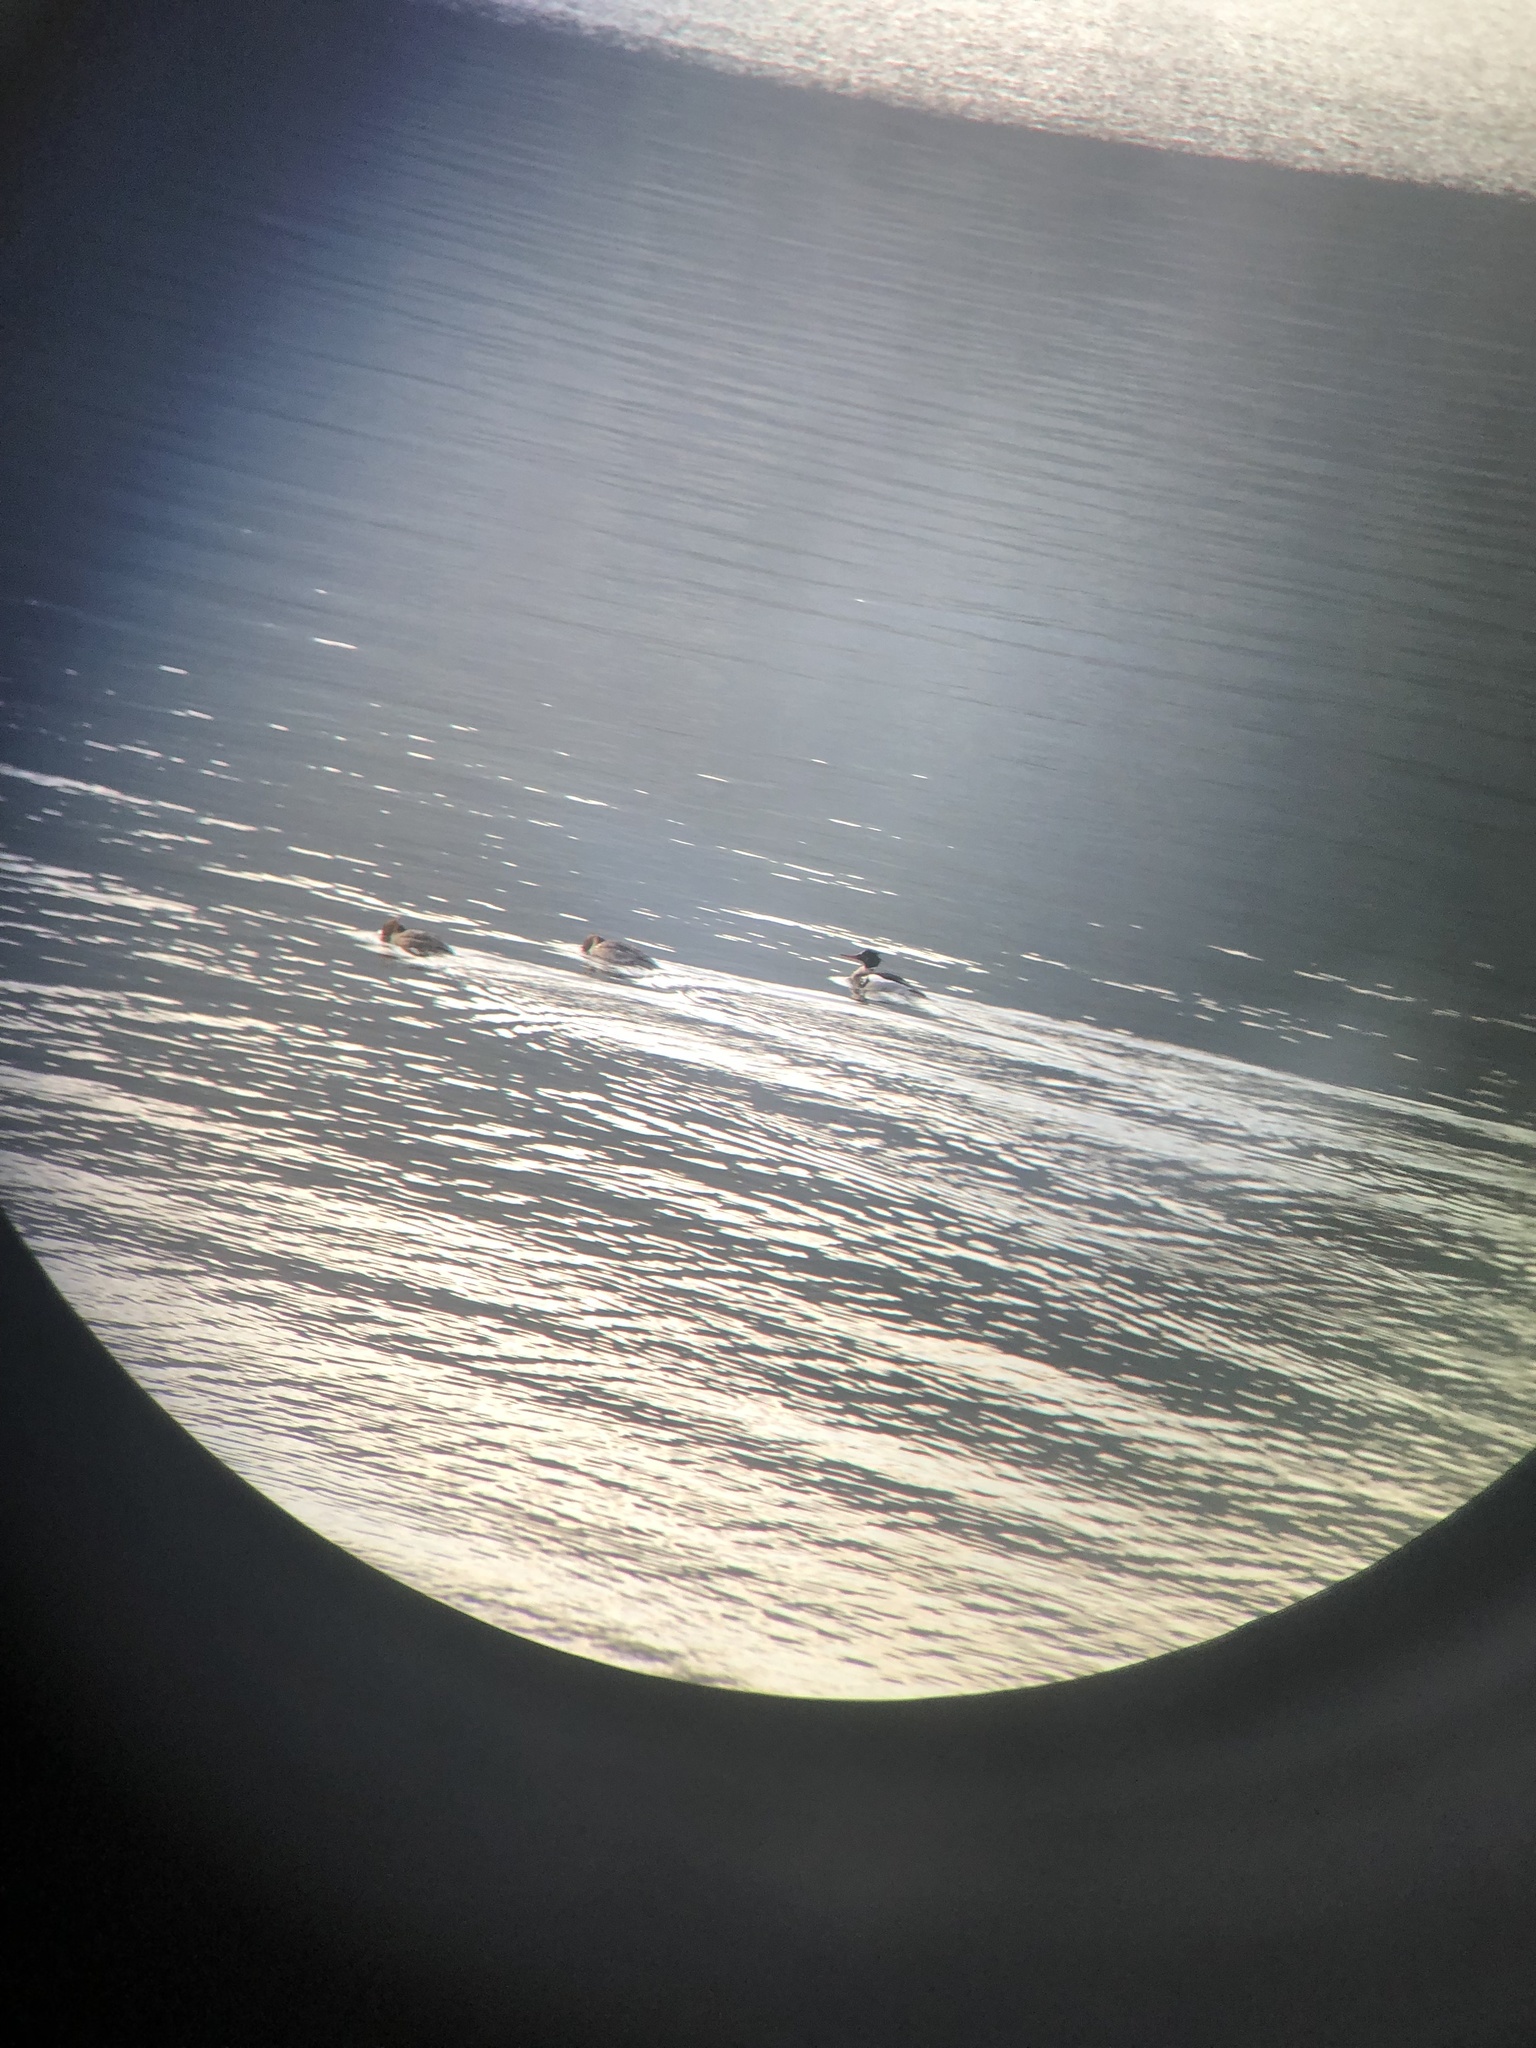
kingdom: Animalia
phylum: Chordata
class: Aves
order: Anseriformes
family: Anatidae
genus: Mergus
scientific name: Mergus serrator
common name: Red-breasted merganser
